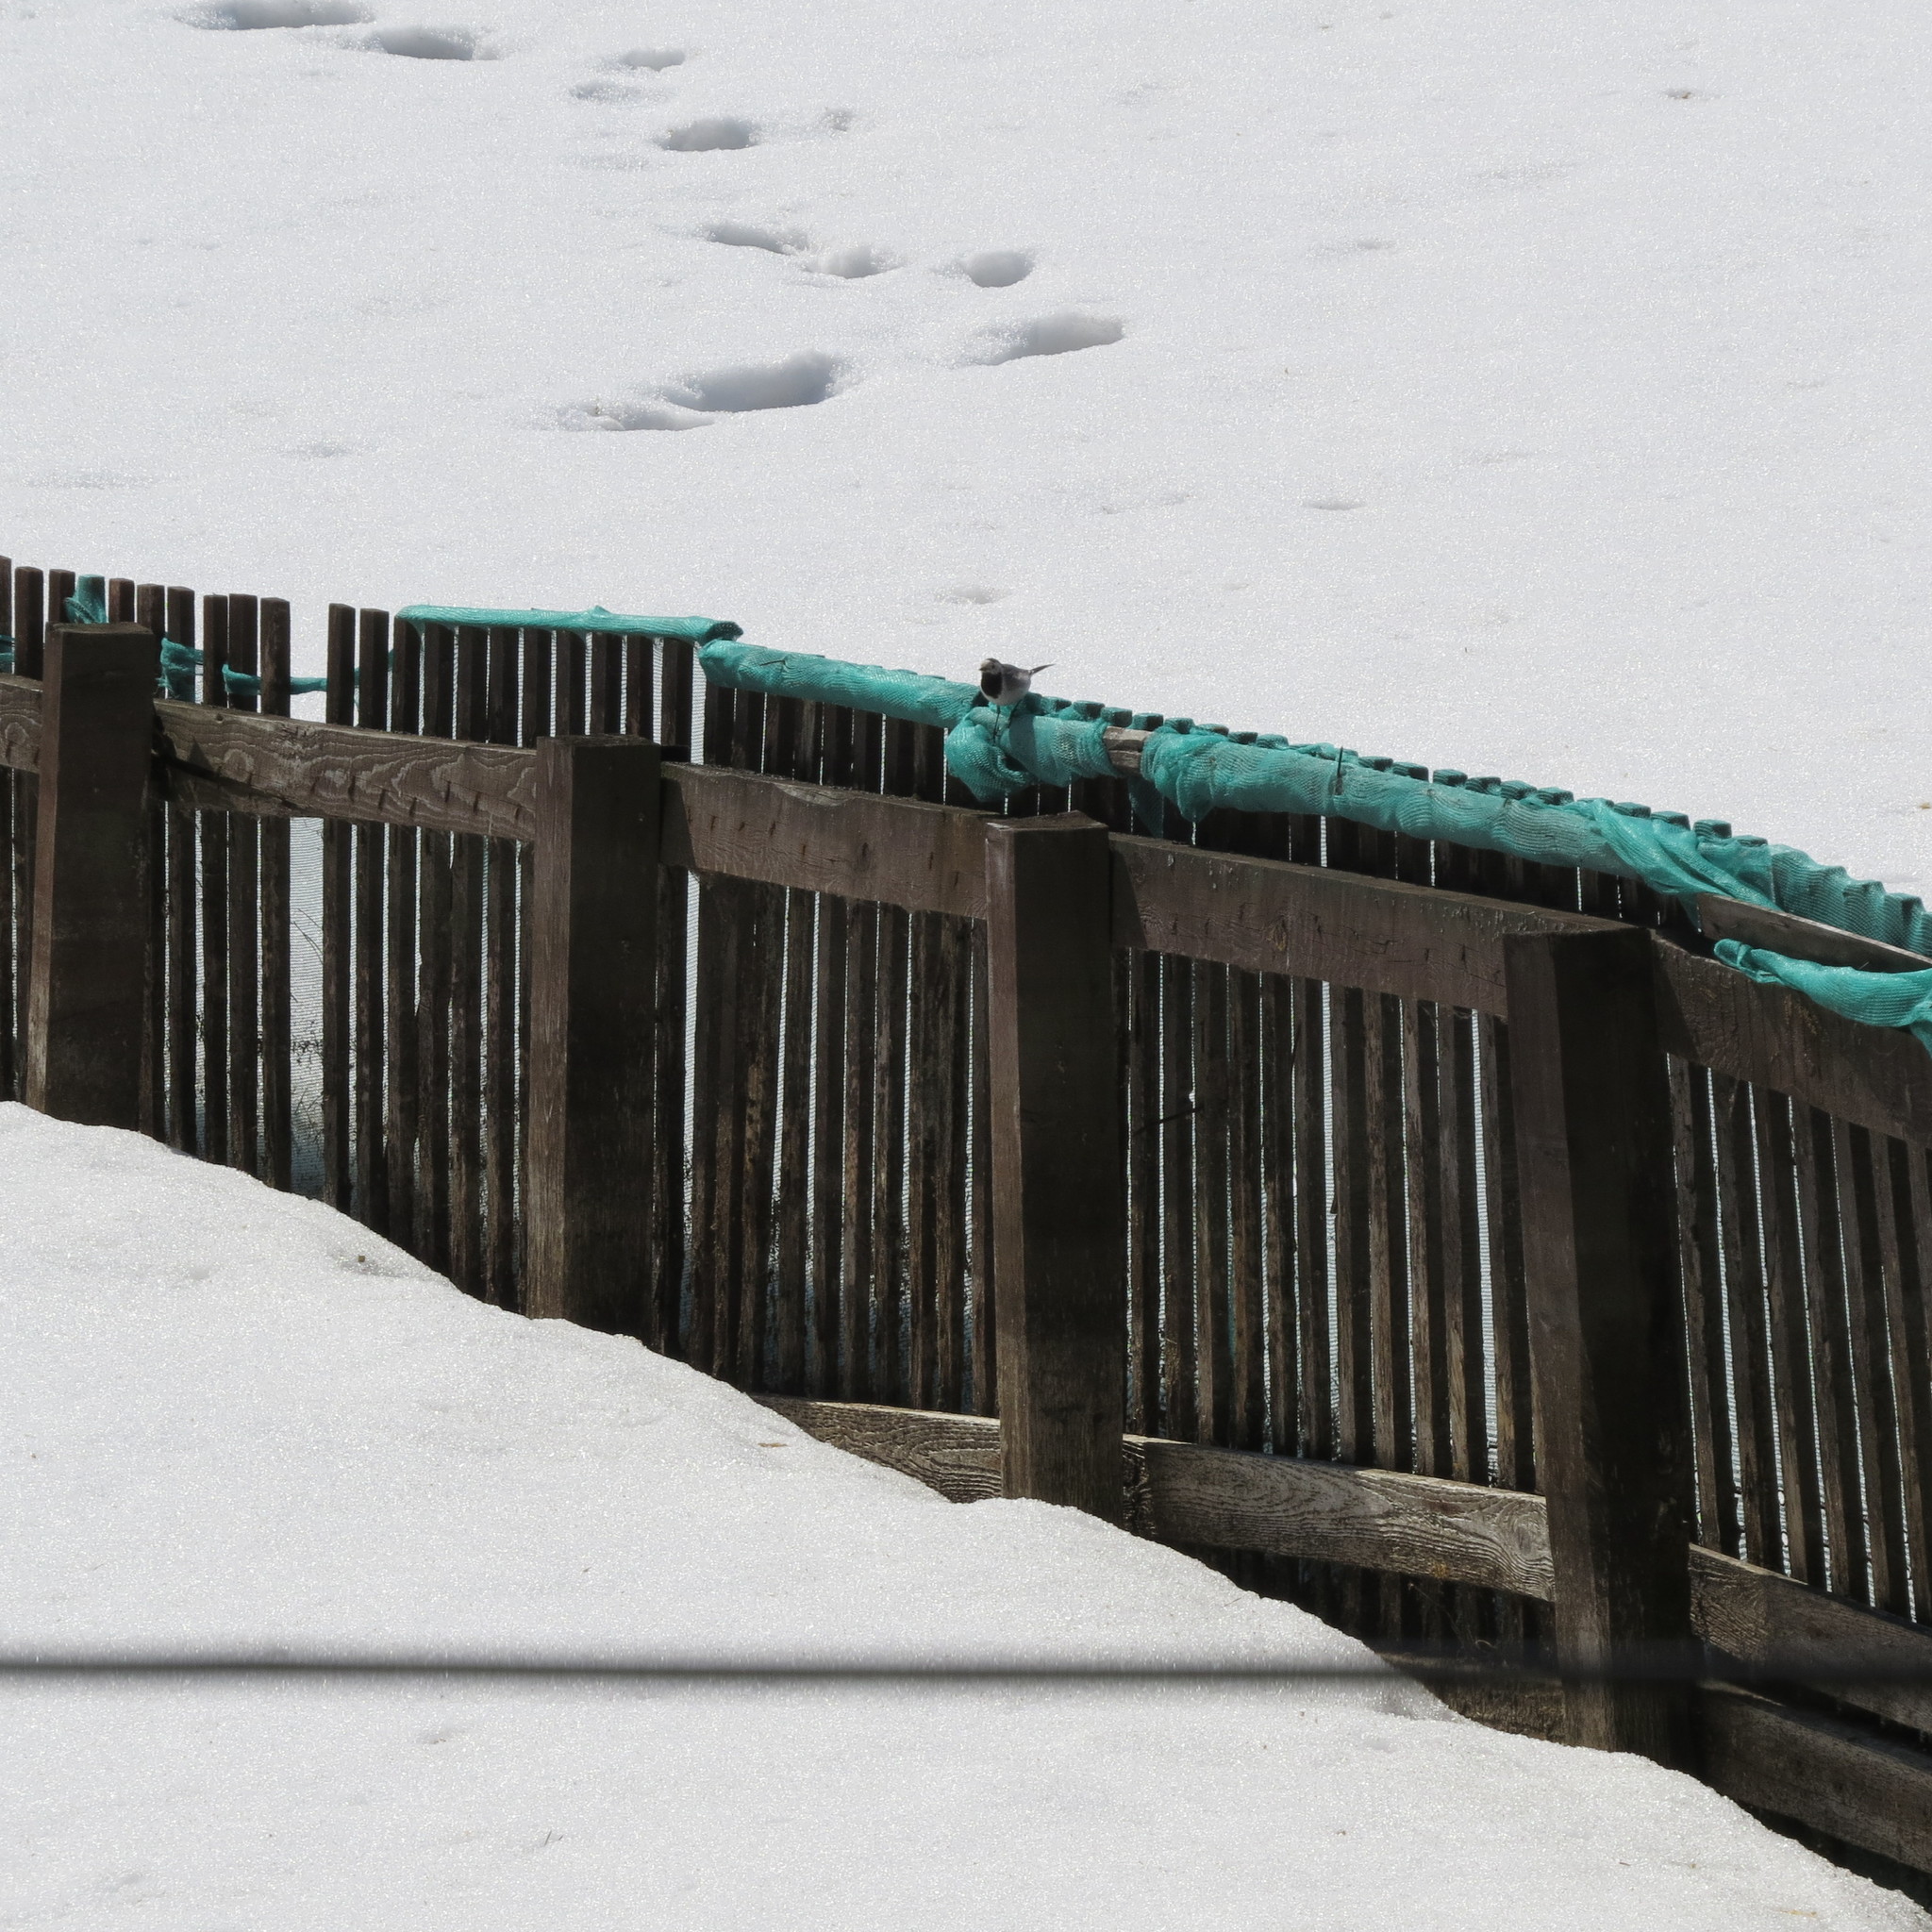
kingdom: Animalia
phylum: Chordata
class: Aves
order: Passeriformes
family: Motacillidae
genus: Motacilla
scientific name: Motacilla alba
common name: White wagtail
